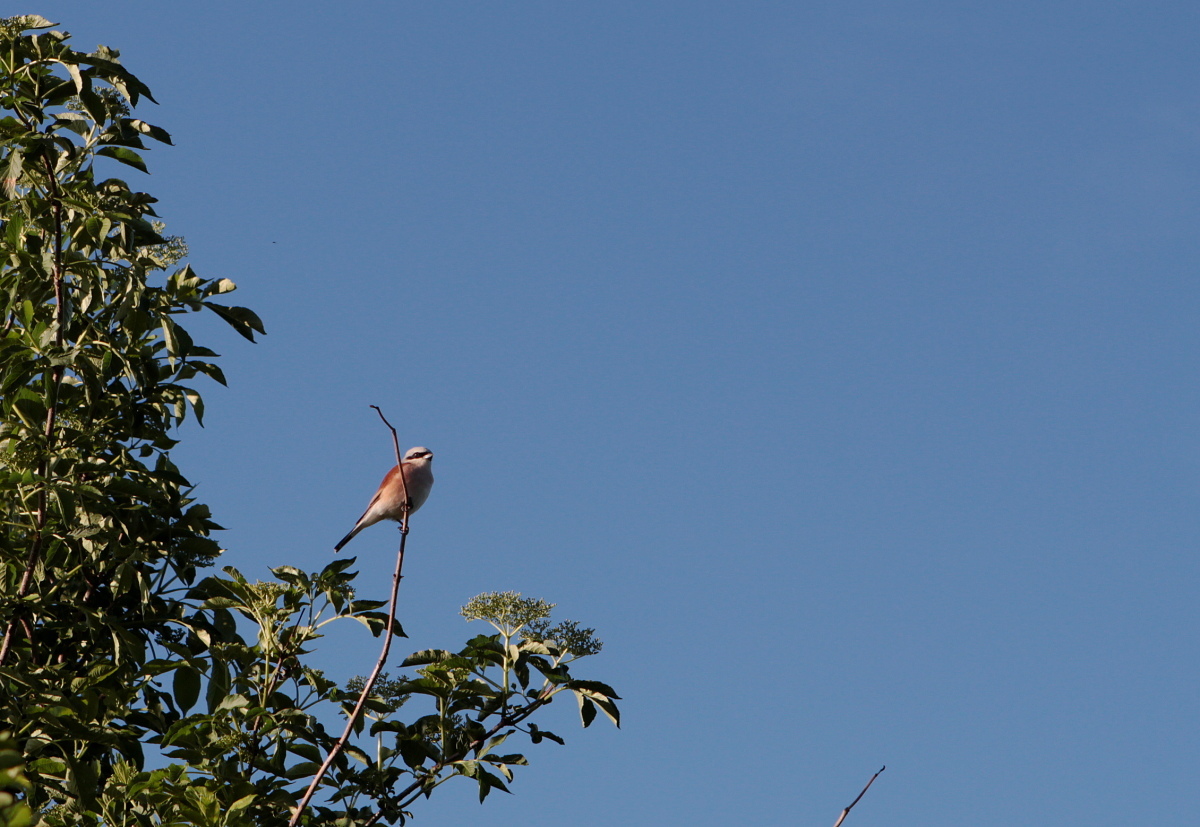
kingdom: Animalia
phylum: Chordata
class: Aves
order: Passeriformes
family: Laniidae
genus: Lanius
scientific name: Lanius collurio
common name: Red-backed shrike
